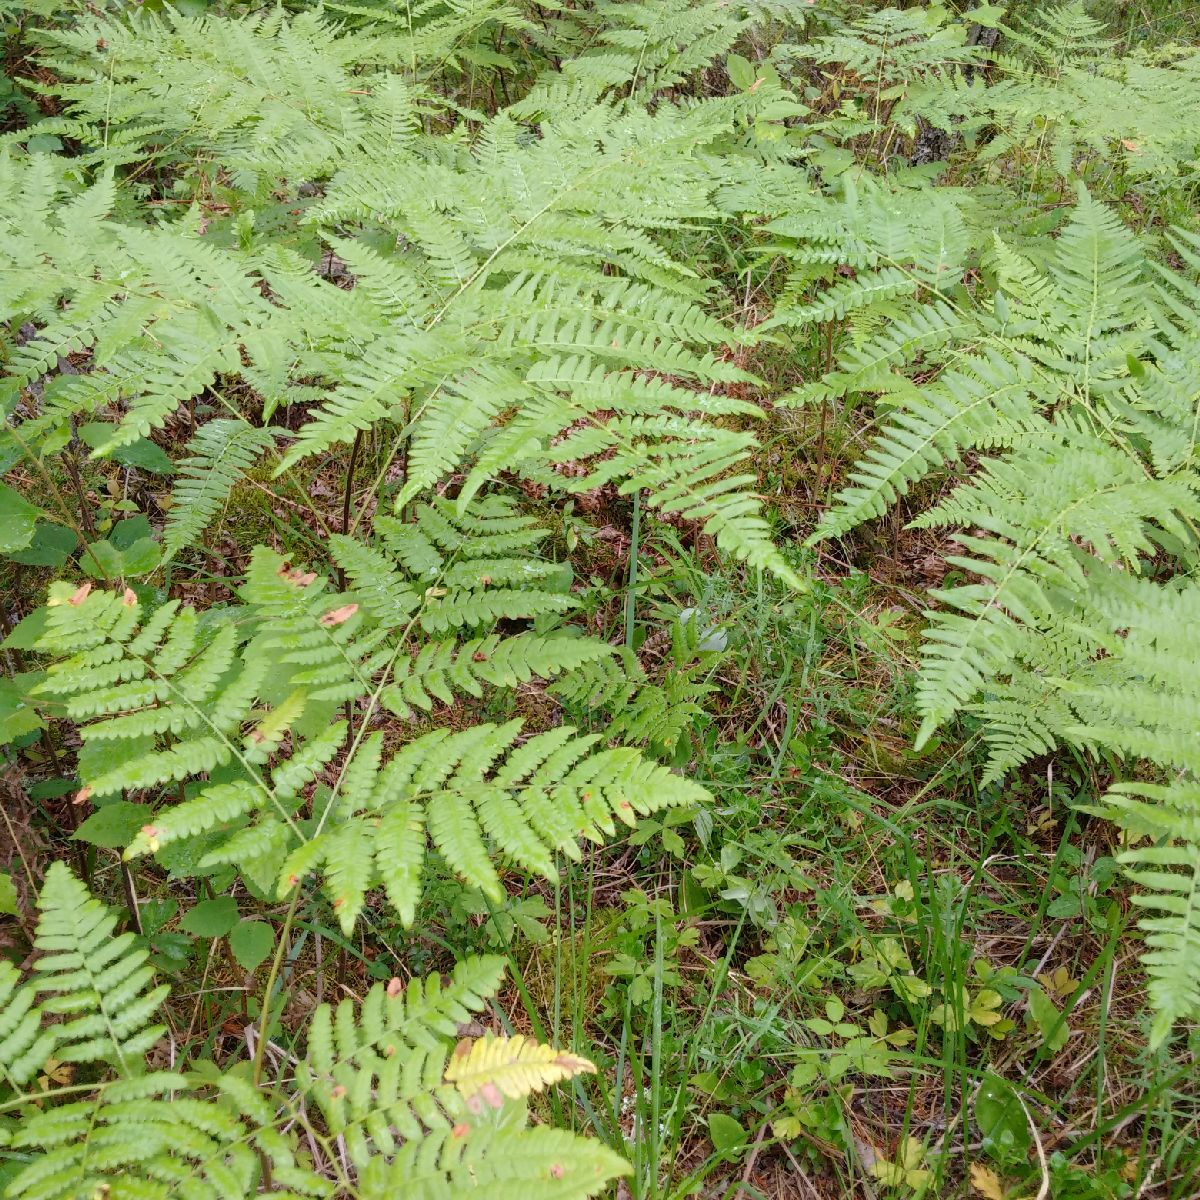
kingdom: Plantae
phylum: Tracheophyta
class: Polypodiopsida
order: Polypodiales
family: Dennstaedtiaceae
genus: Pteridium
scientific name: Pteridium aquilinum
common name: Bracken
